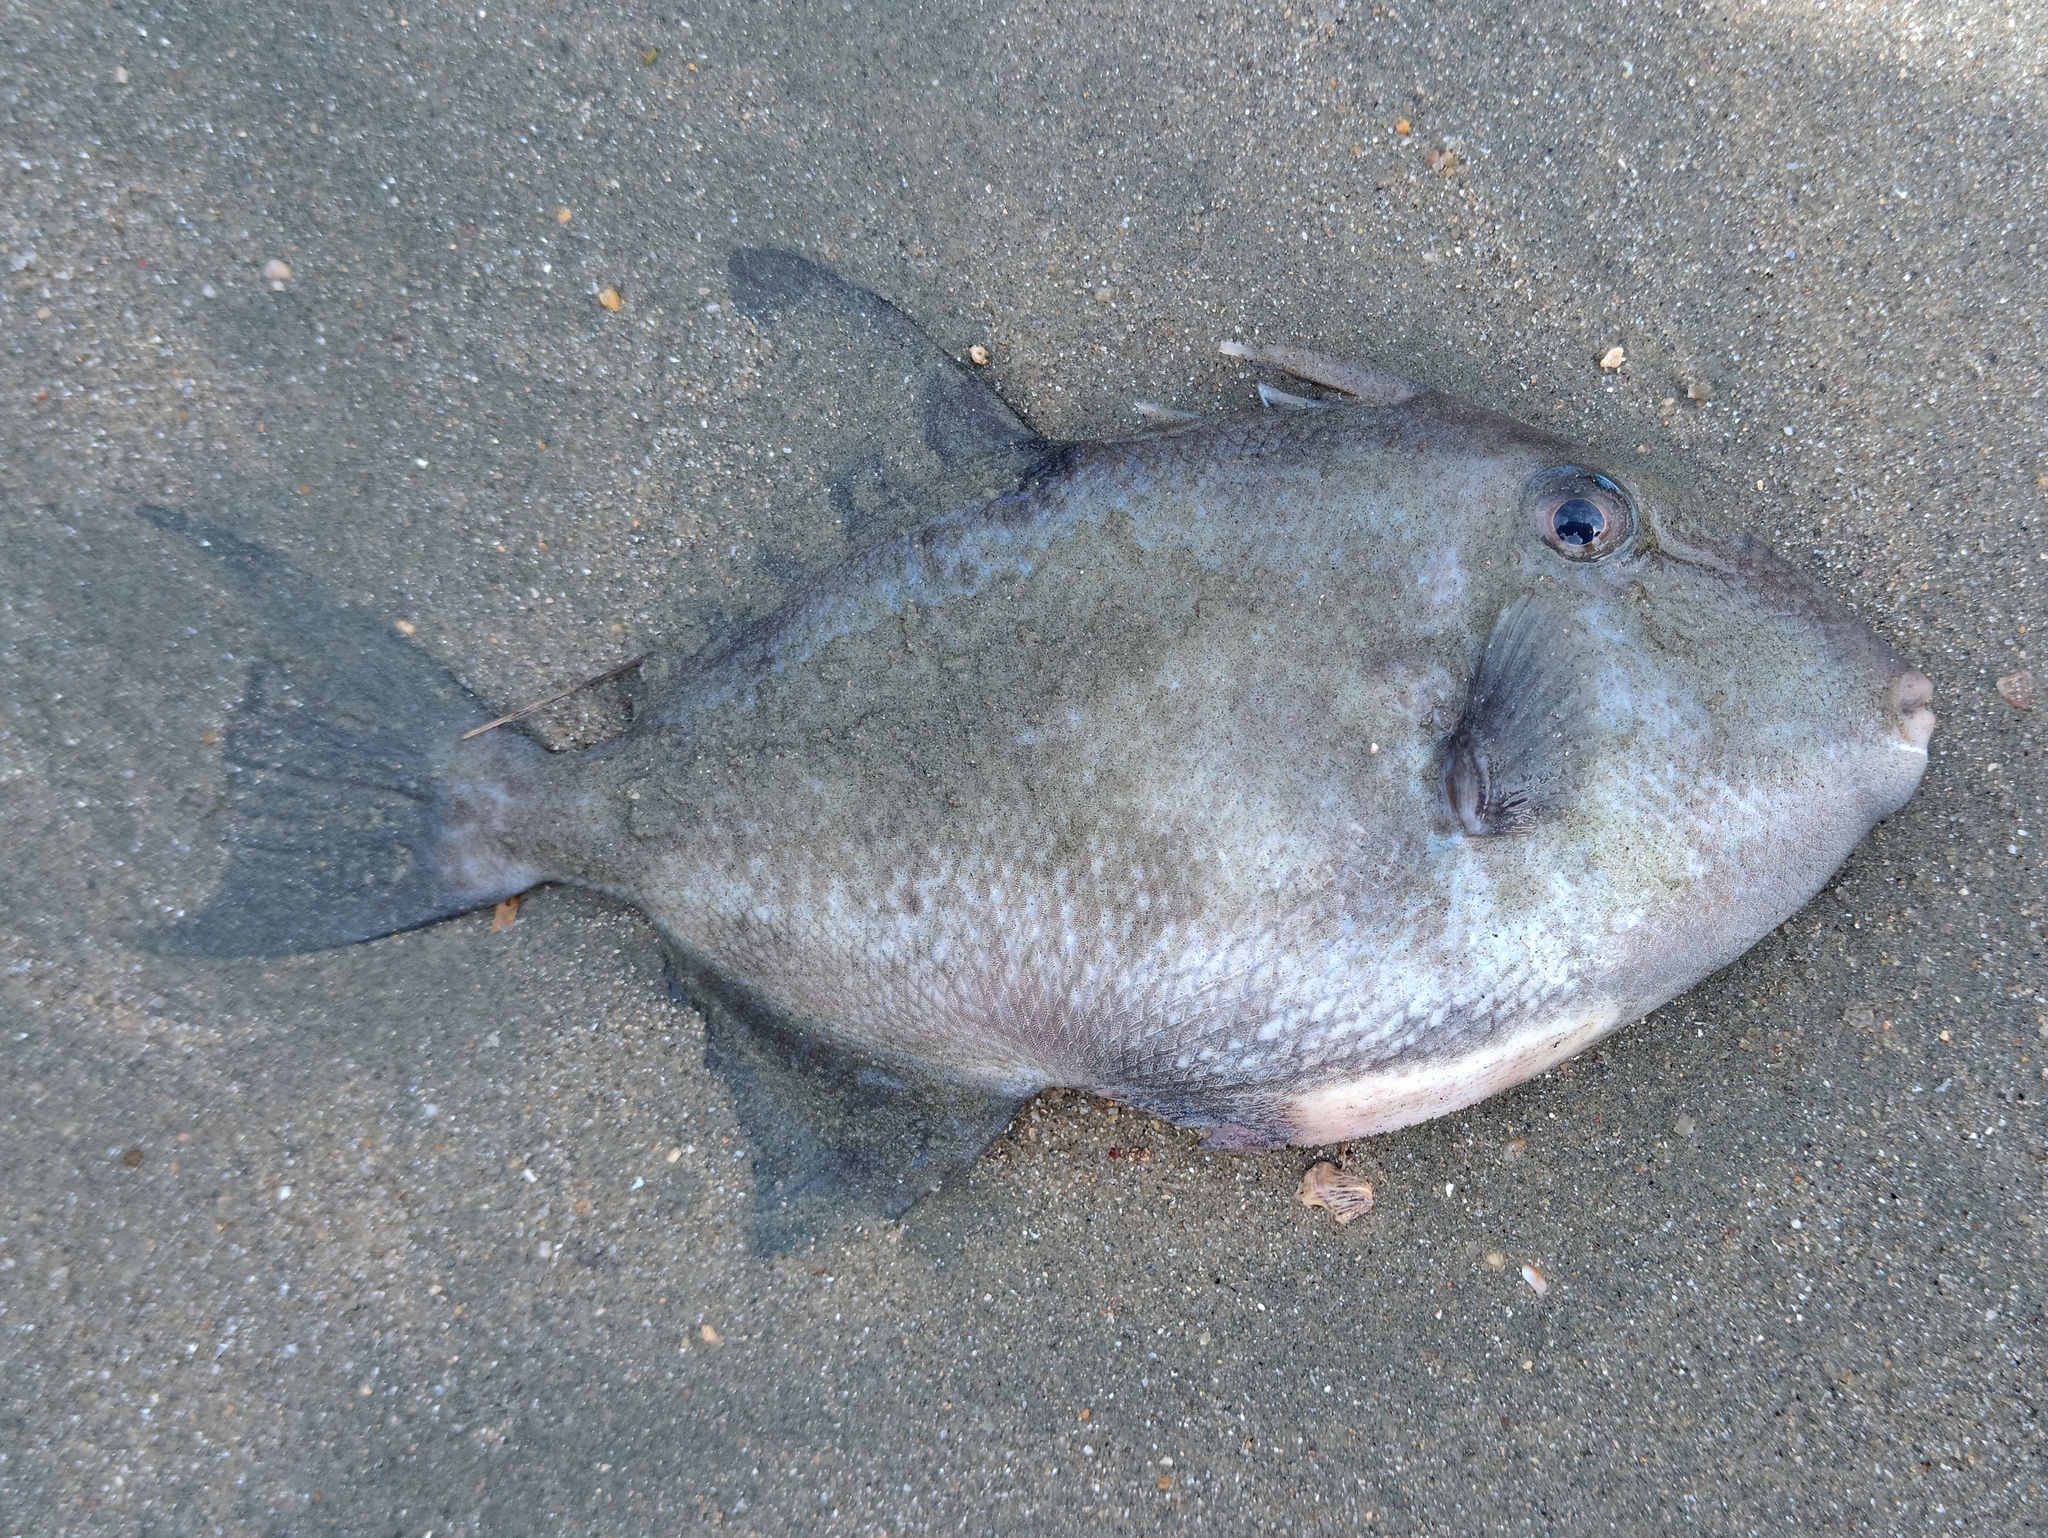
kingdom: Animalia
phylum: Chordata
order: Tetraodontiformes
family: Balistidae
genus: Balistes
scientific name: Balistes capriscus
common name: Grey triggerfish
